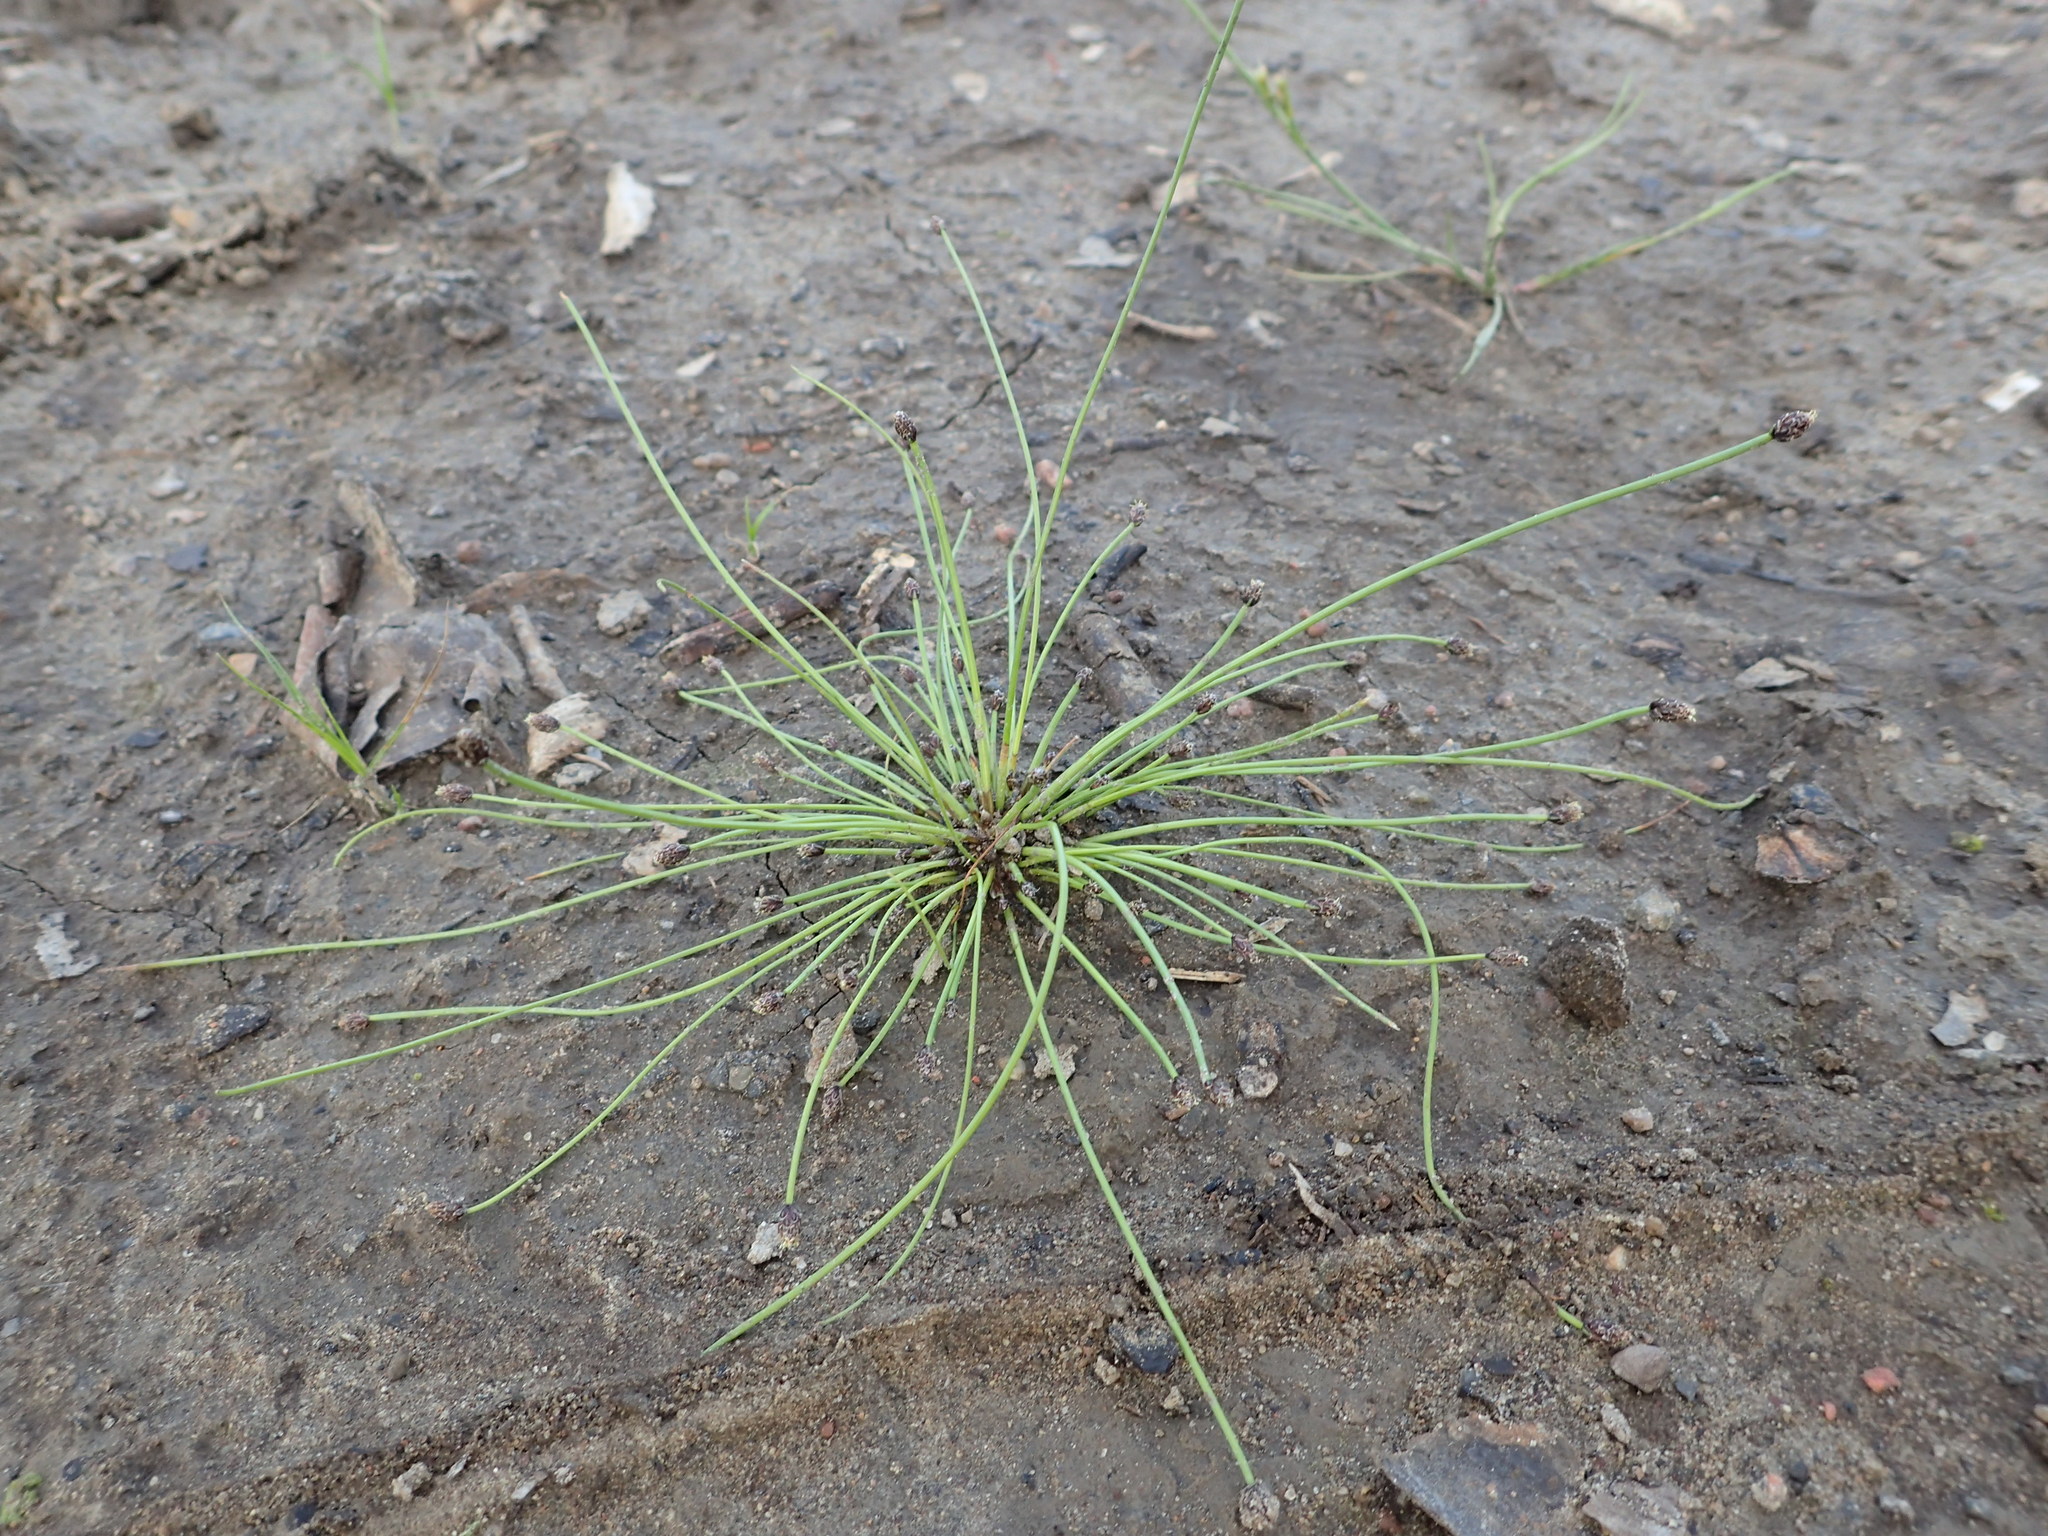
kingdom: Plantae
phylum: Tracheophyta
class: Liliopsida
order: Poales
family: Cyperaceae
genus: Eleocharis
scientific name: Eleocharis ovata
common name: Oval spike-rush
